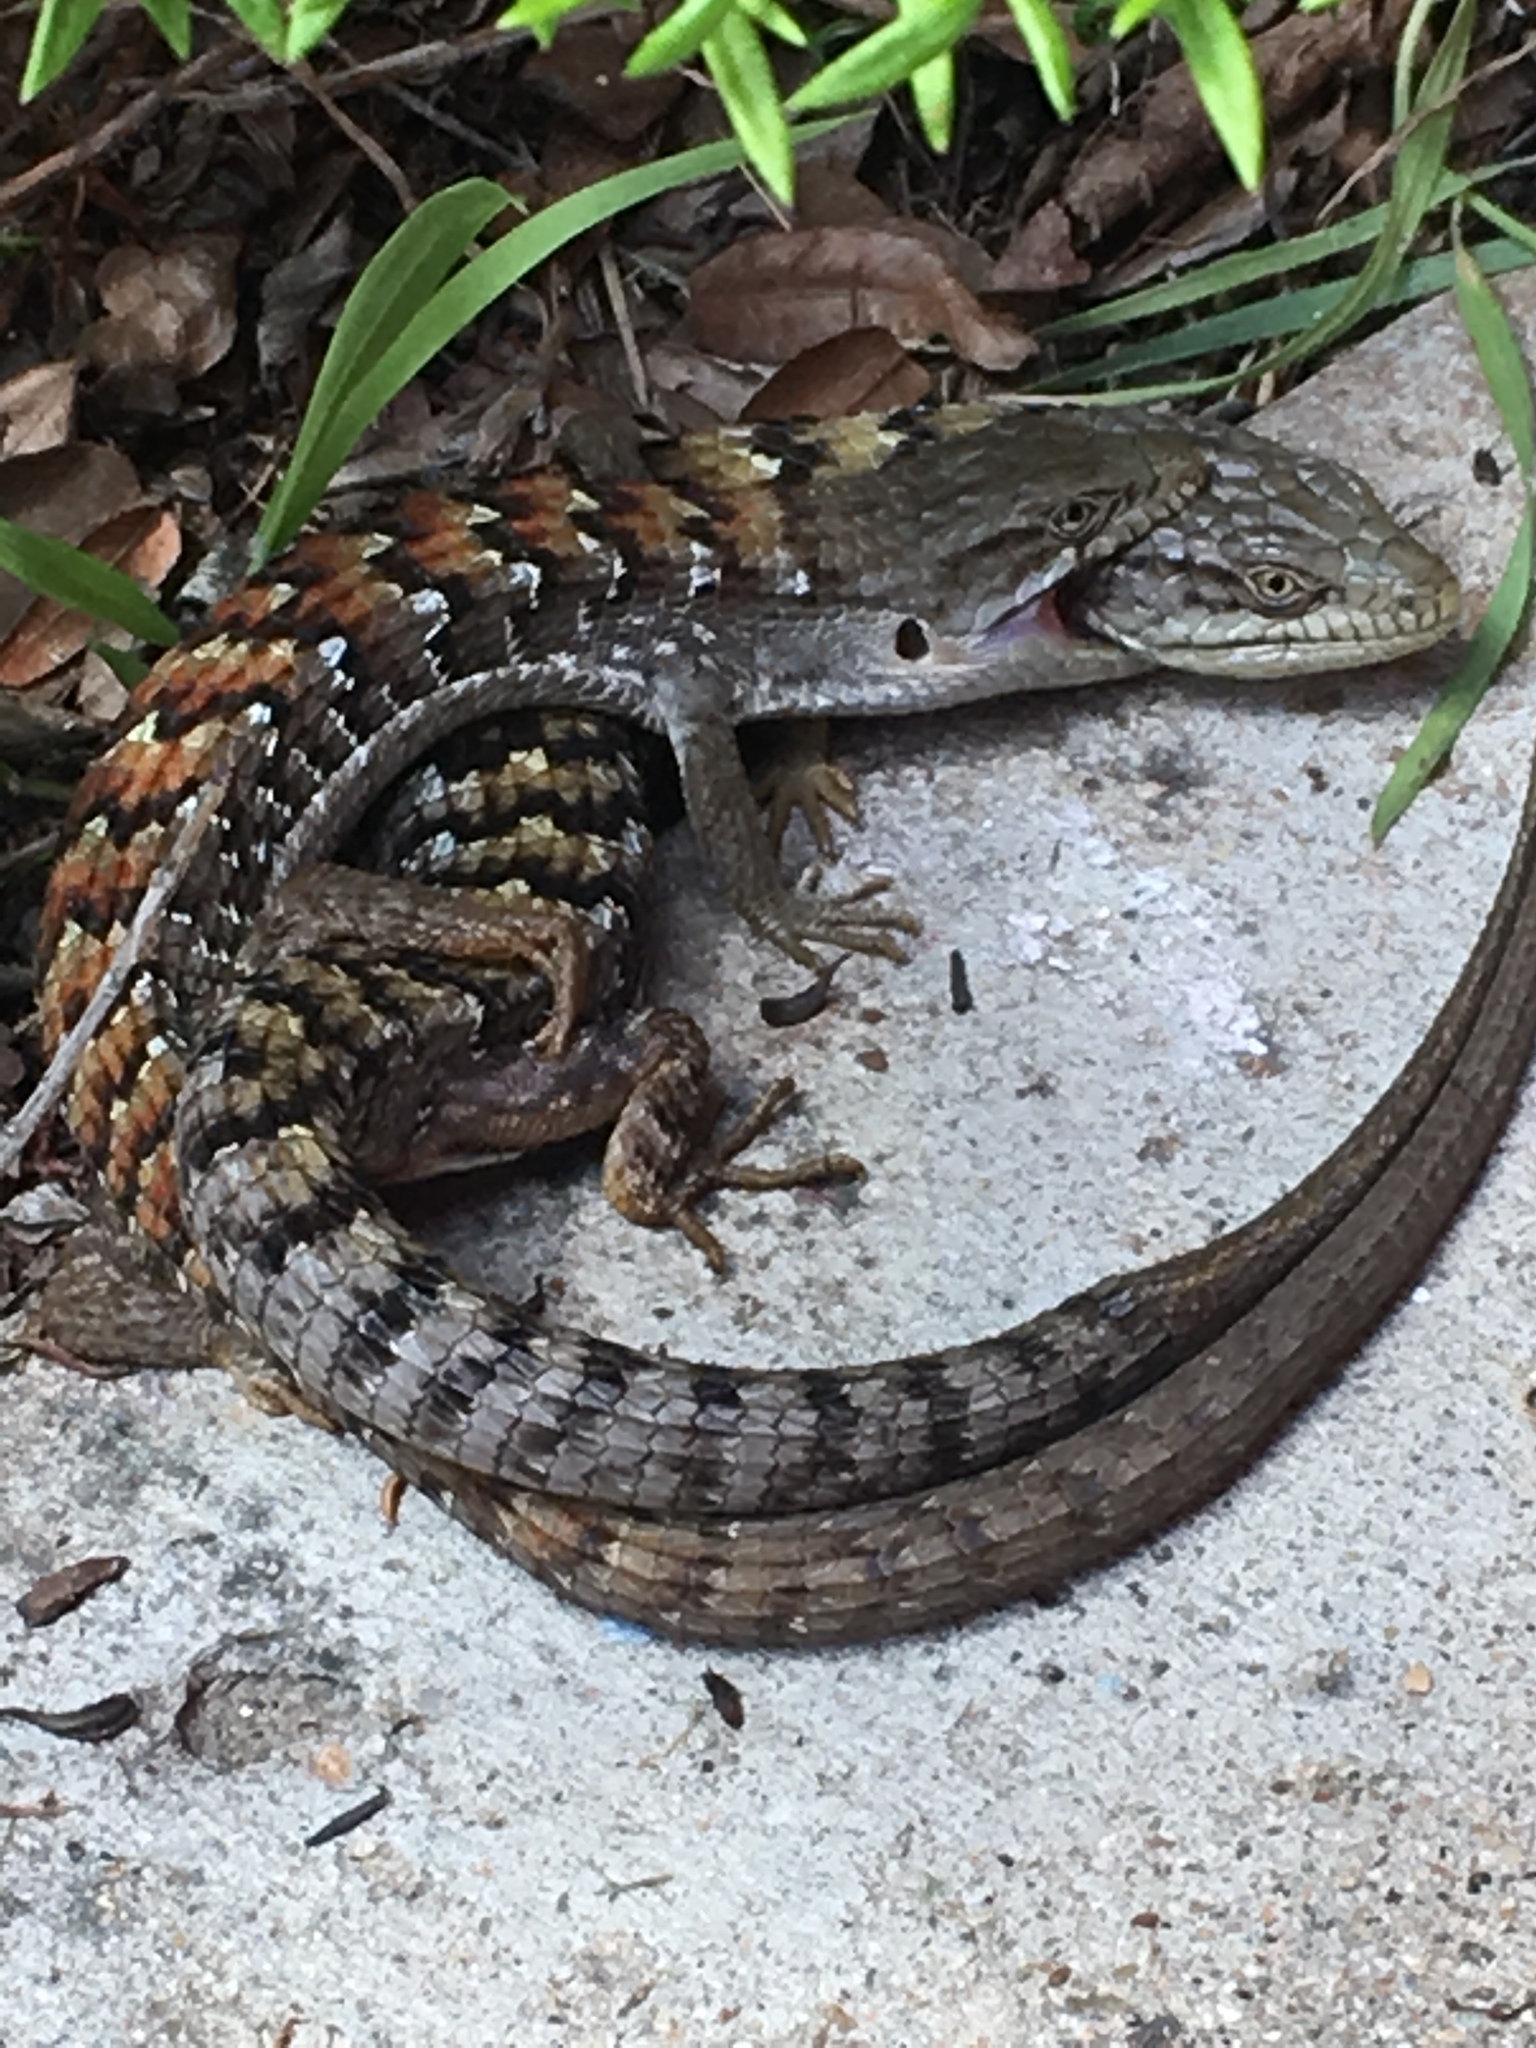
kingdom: Animalia
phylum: Chordata
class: Squamata
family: Anguidae
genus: Elgaria
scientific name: Elgaria multicarinata
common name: Southern alligator lizard
